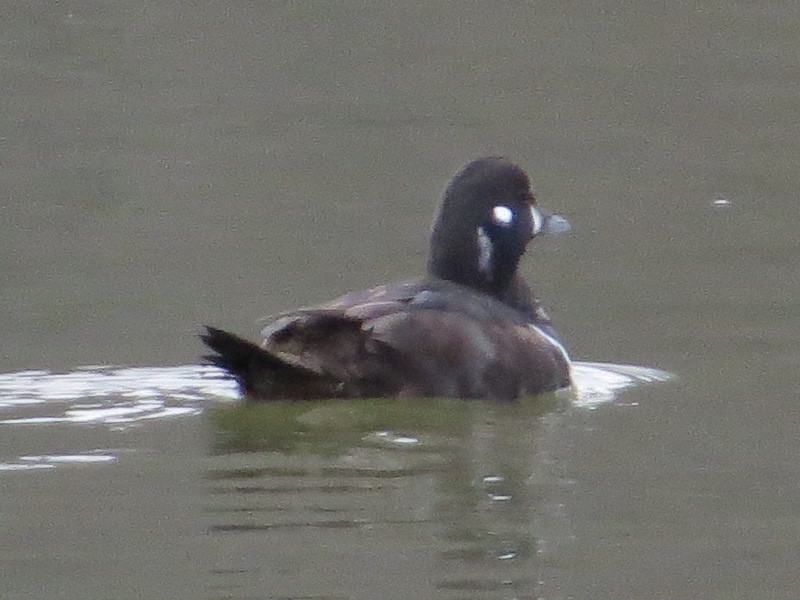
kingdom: Animalia
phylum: Chordata
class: Aves
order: Anseriformes
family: Anatidae
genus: Histrionicus
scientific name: Histrionicus histrionicus
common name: Harlequin duck
